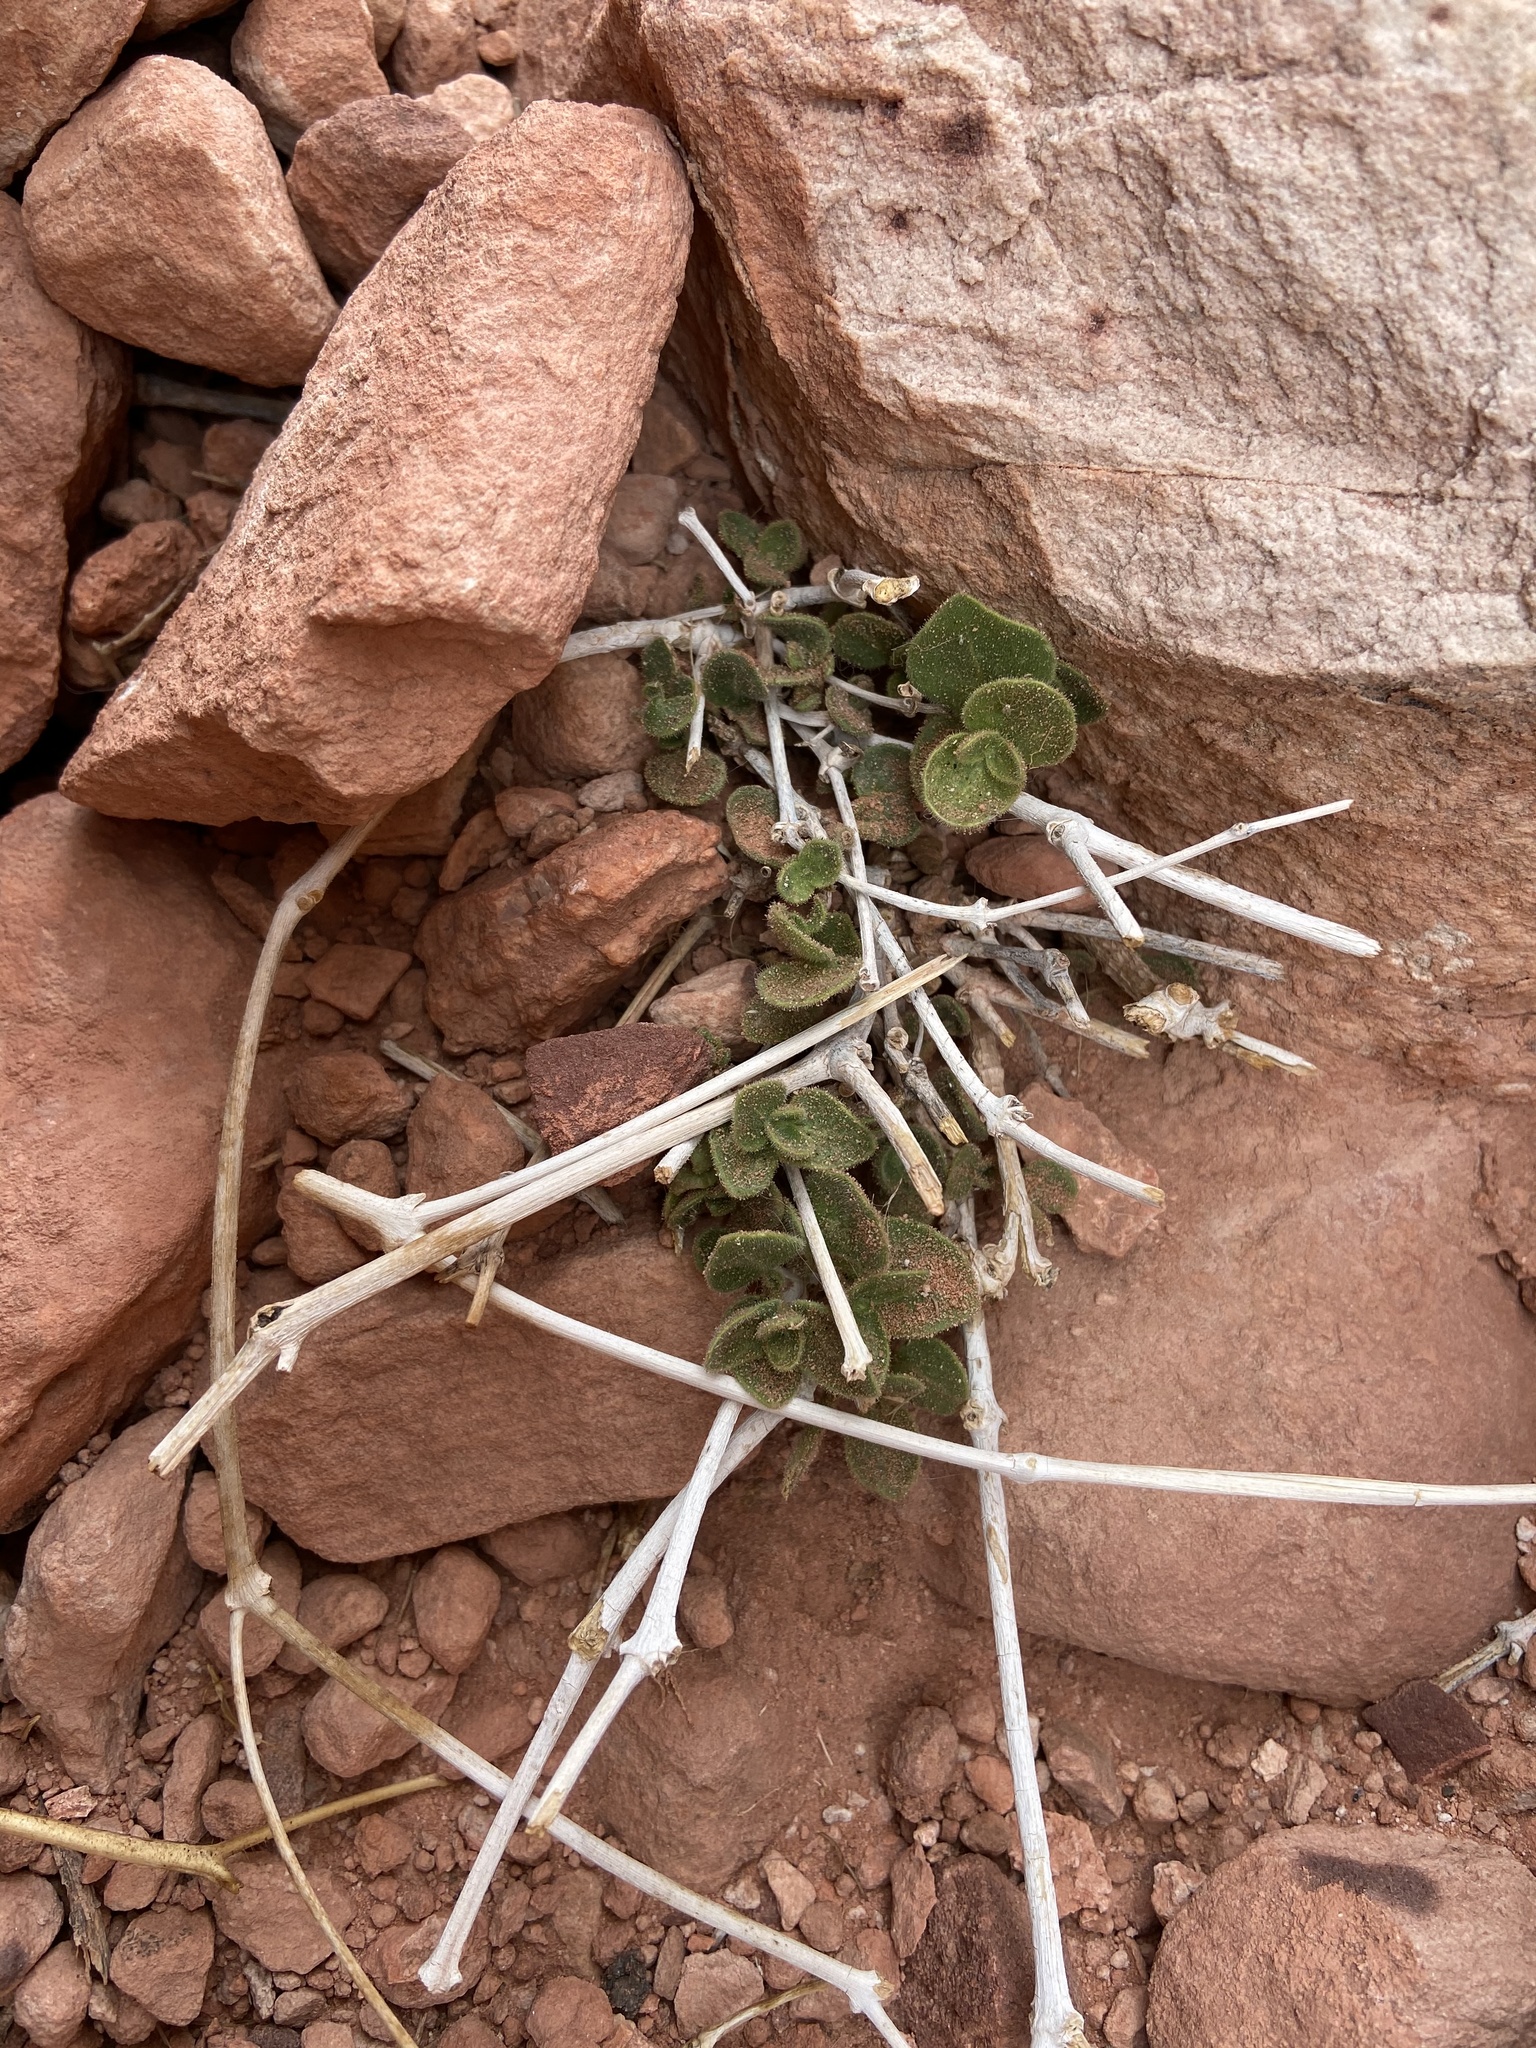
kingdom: Plantae
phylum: Tracheophyta
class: Magnoliopsida
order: Caryophyllales
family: Nyctaginaceae
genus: Mirabilis
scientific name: Mirabilis laevis
